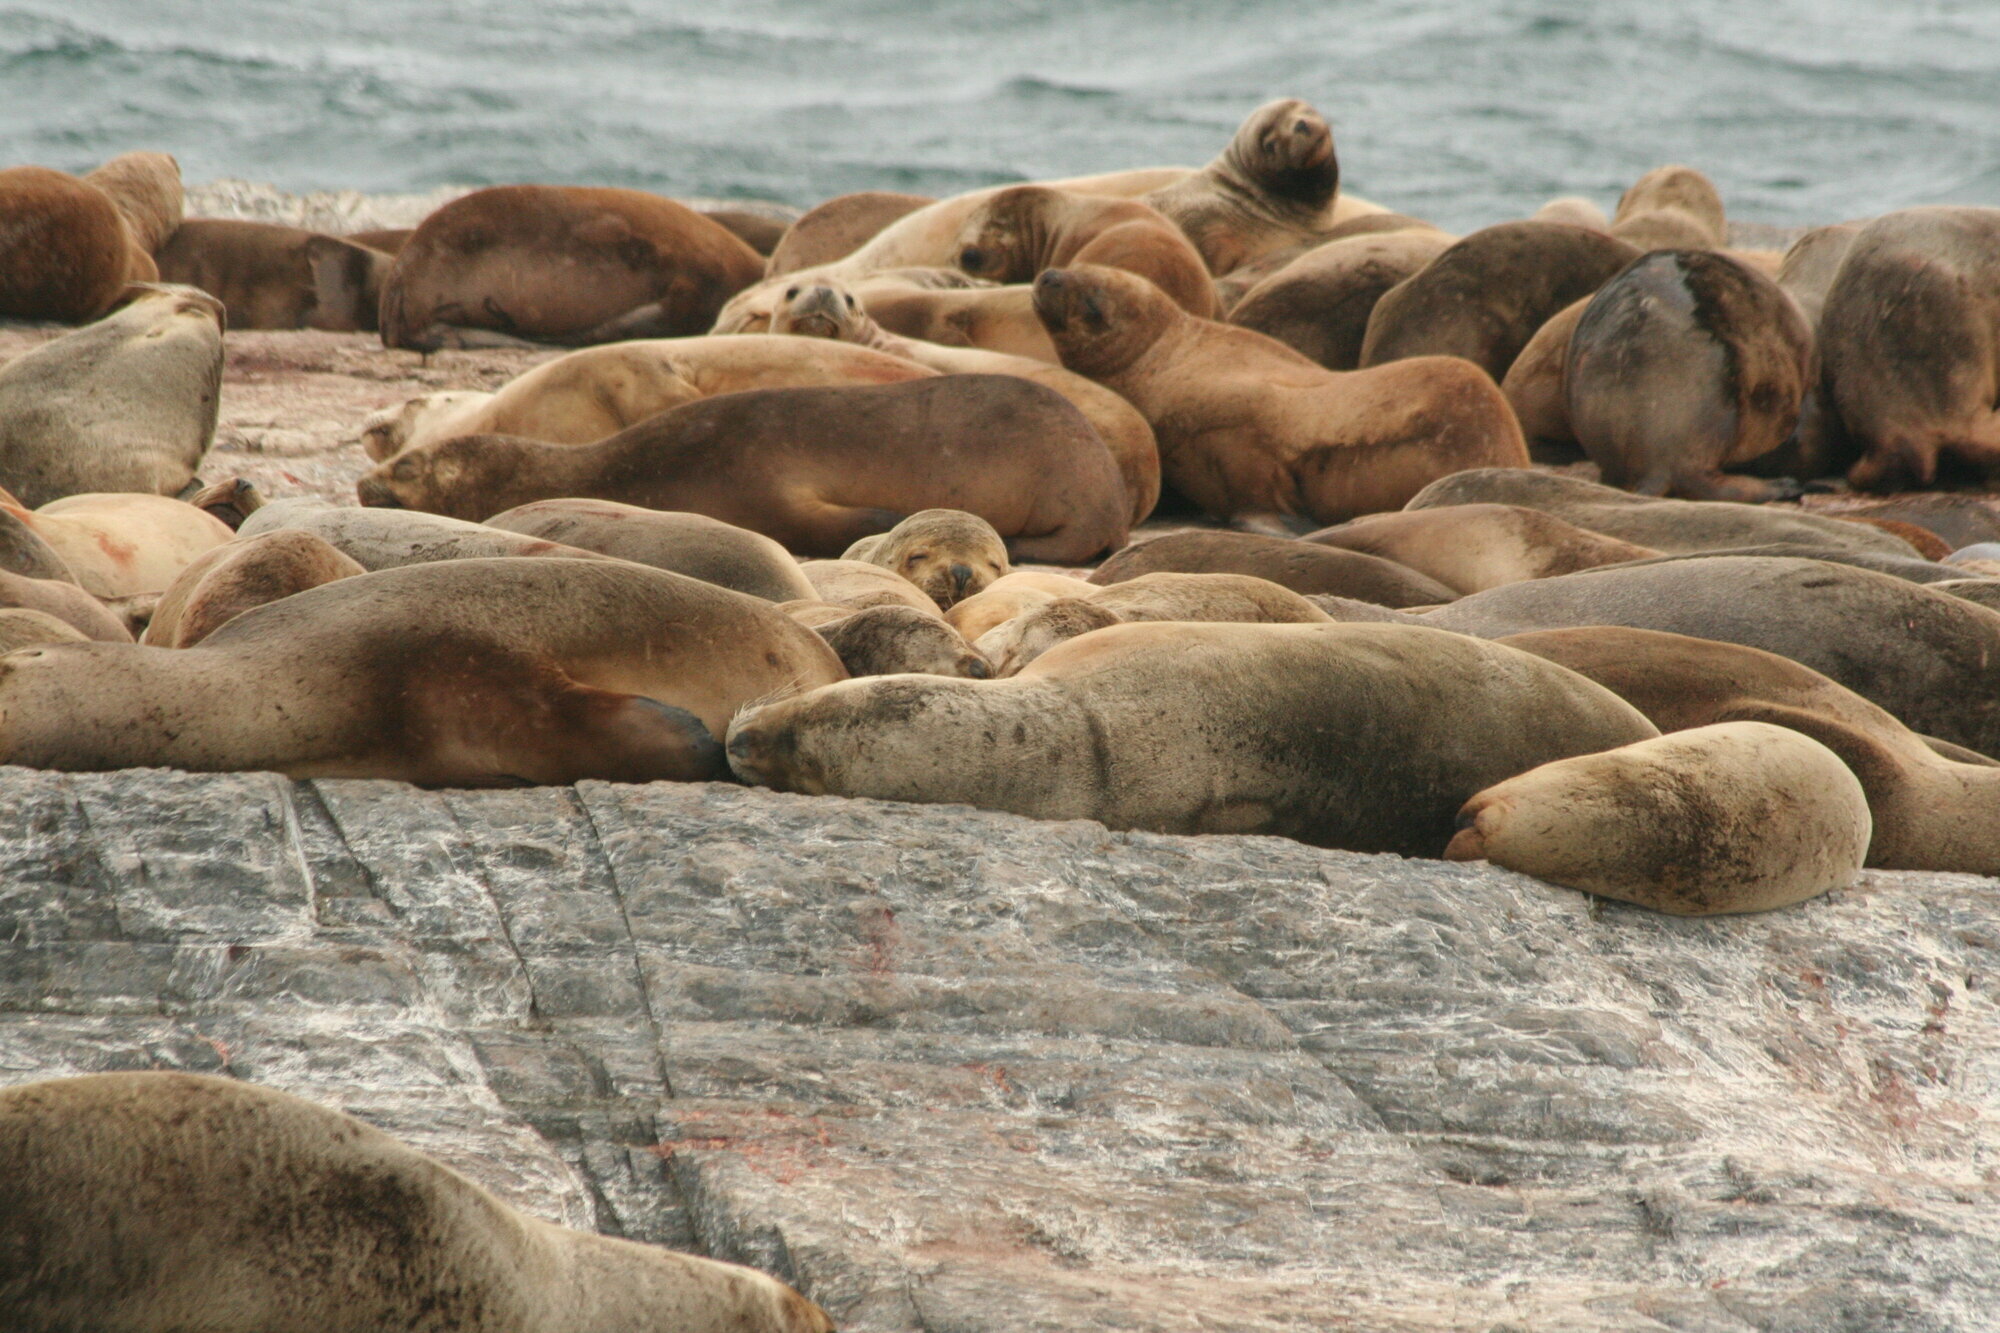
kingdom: Animalia
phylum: Chordata
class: Mammalia
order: Carnivora
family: Otariidae
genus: Otaria
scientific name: Otaria byronia
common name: South american sea lion
